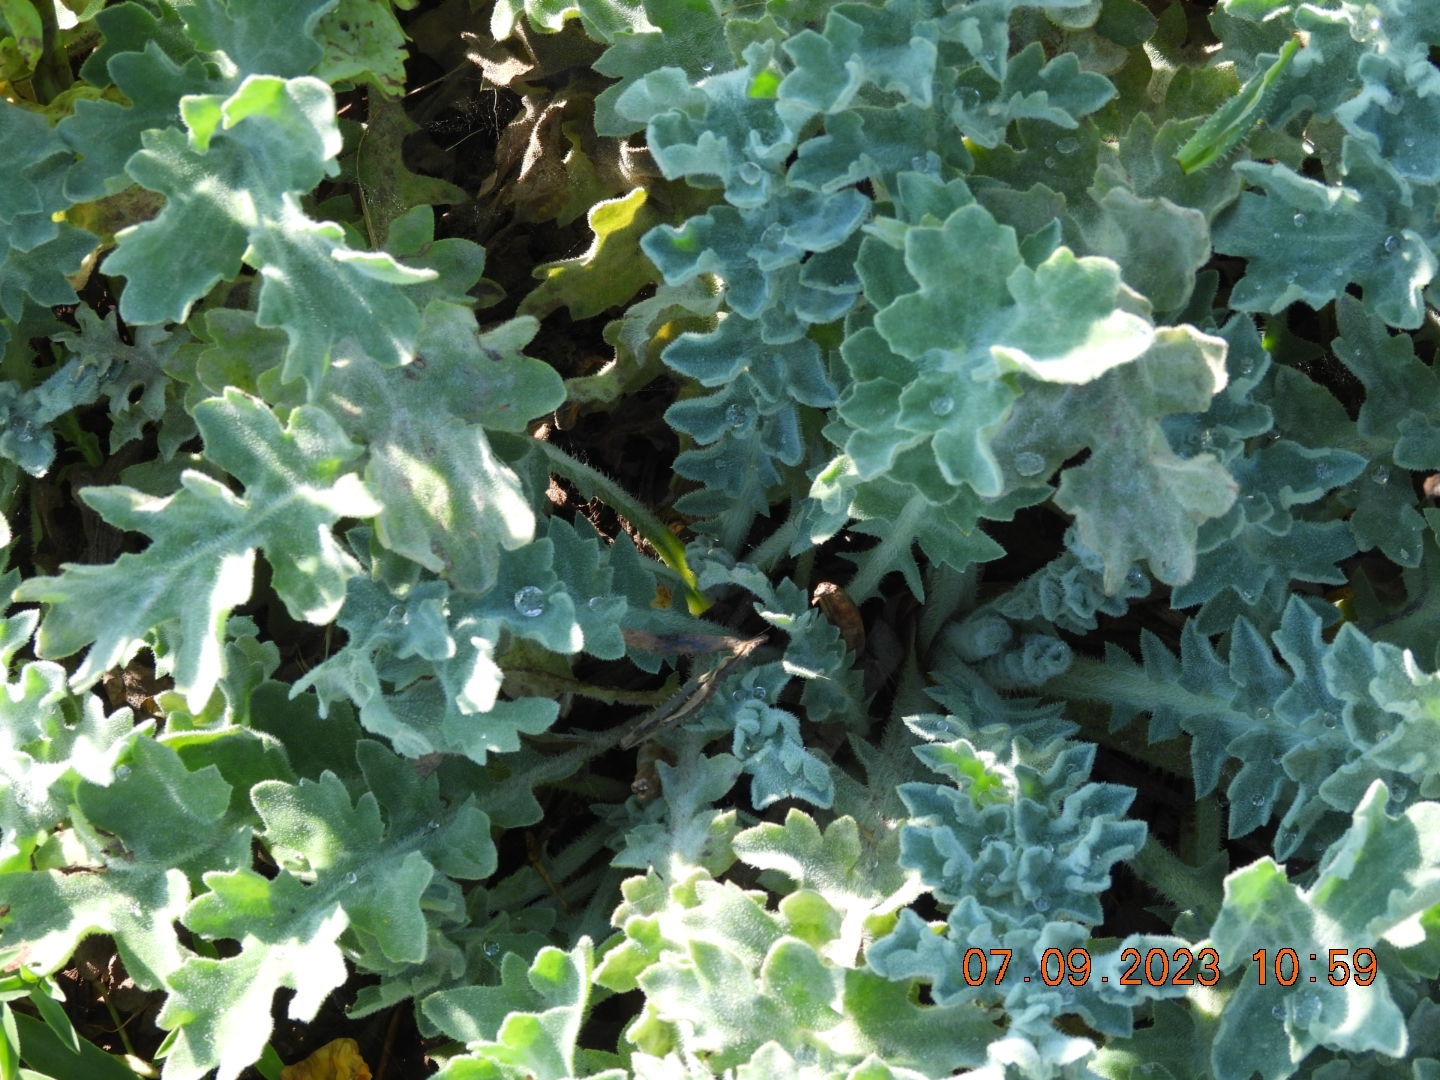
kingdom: Plantae
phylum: Tracheophyta
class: Magnoliopsida
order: Ranunculales
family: Papaveraceae
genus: Glaucium
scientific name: Glaucium flavum
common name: Yellow horned-poppy
